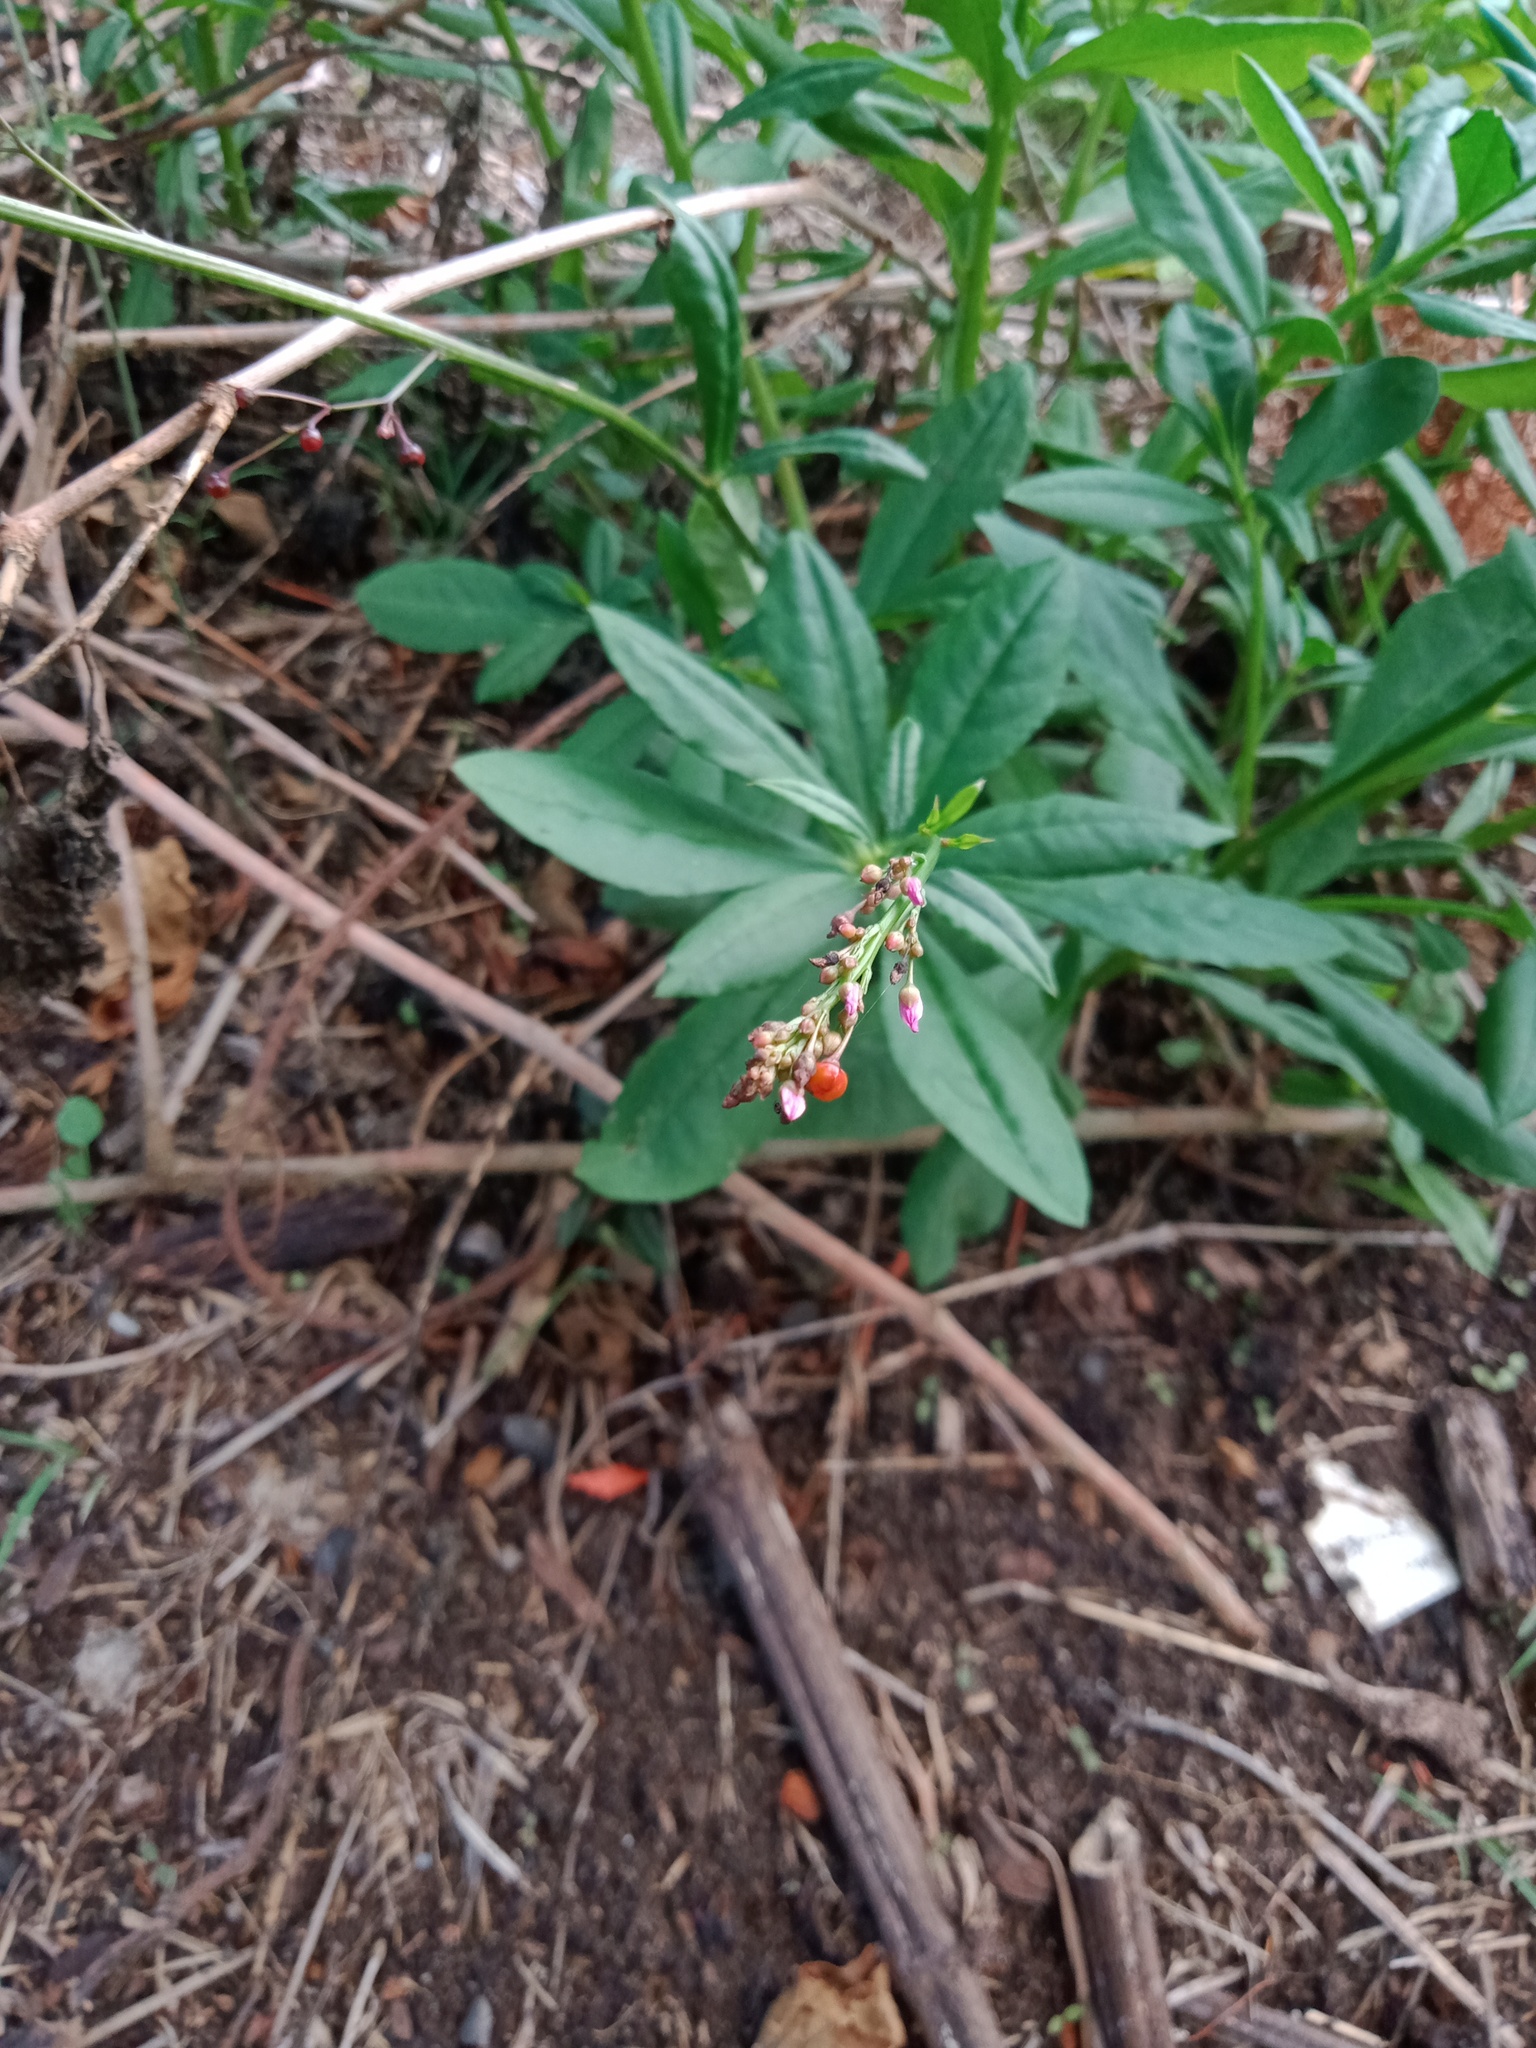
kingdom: Plantae
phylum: Tracheophyta
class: Magnoliopsida
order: Caryophyllales
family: Talinaceae
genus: Talinum
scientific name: Talinum paniculatum
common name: Jewels of opar
